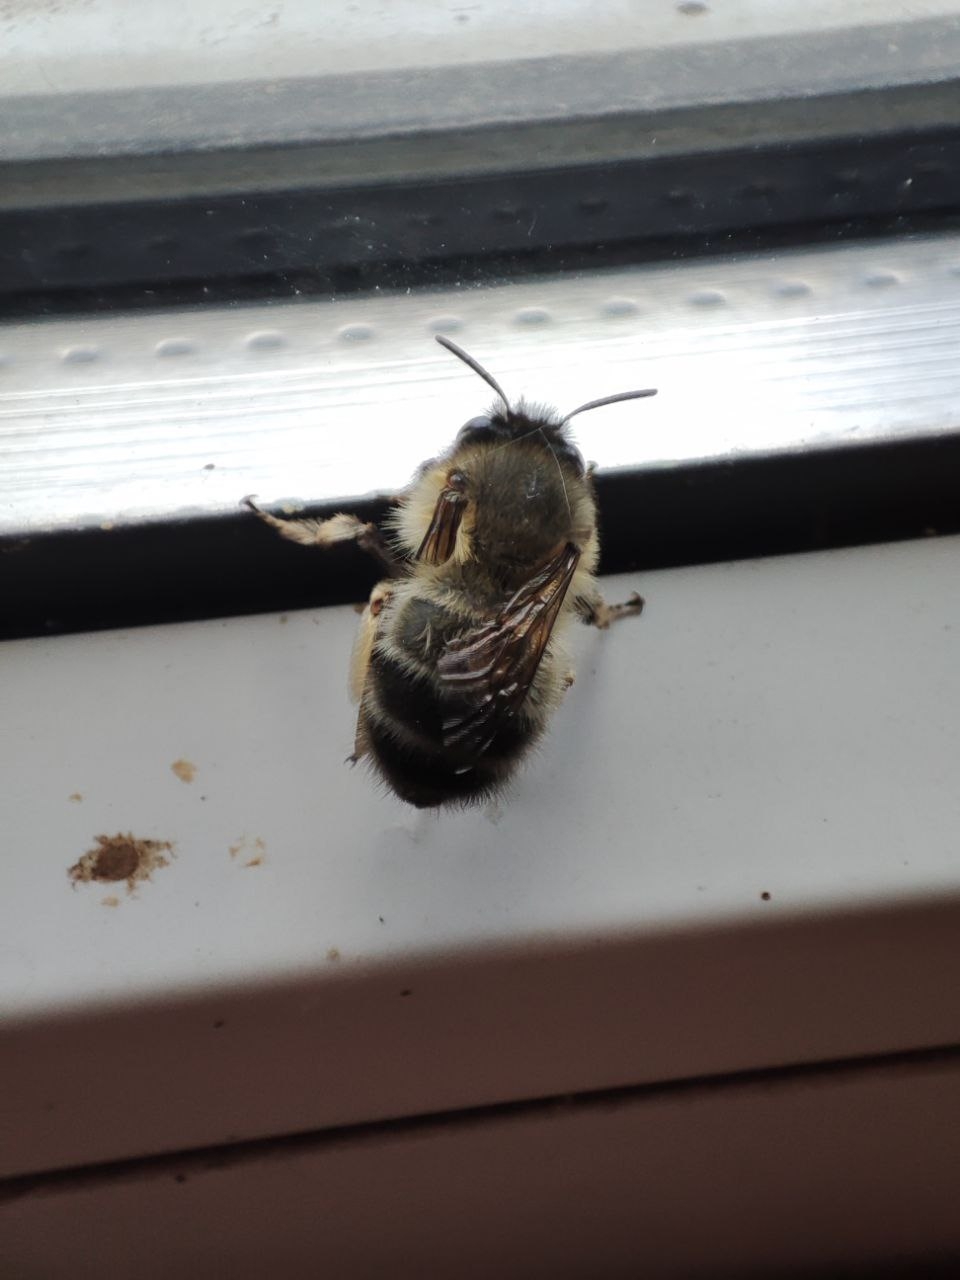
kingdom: Animalia
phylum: Arthropoda
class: Insecta
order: Hymenoptera
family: Apidae
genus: Anthophora
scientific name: Anthophora plumipes
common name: Hairy-footed flower bee
